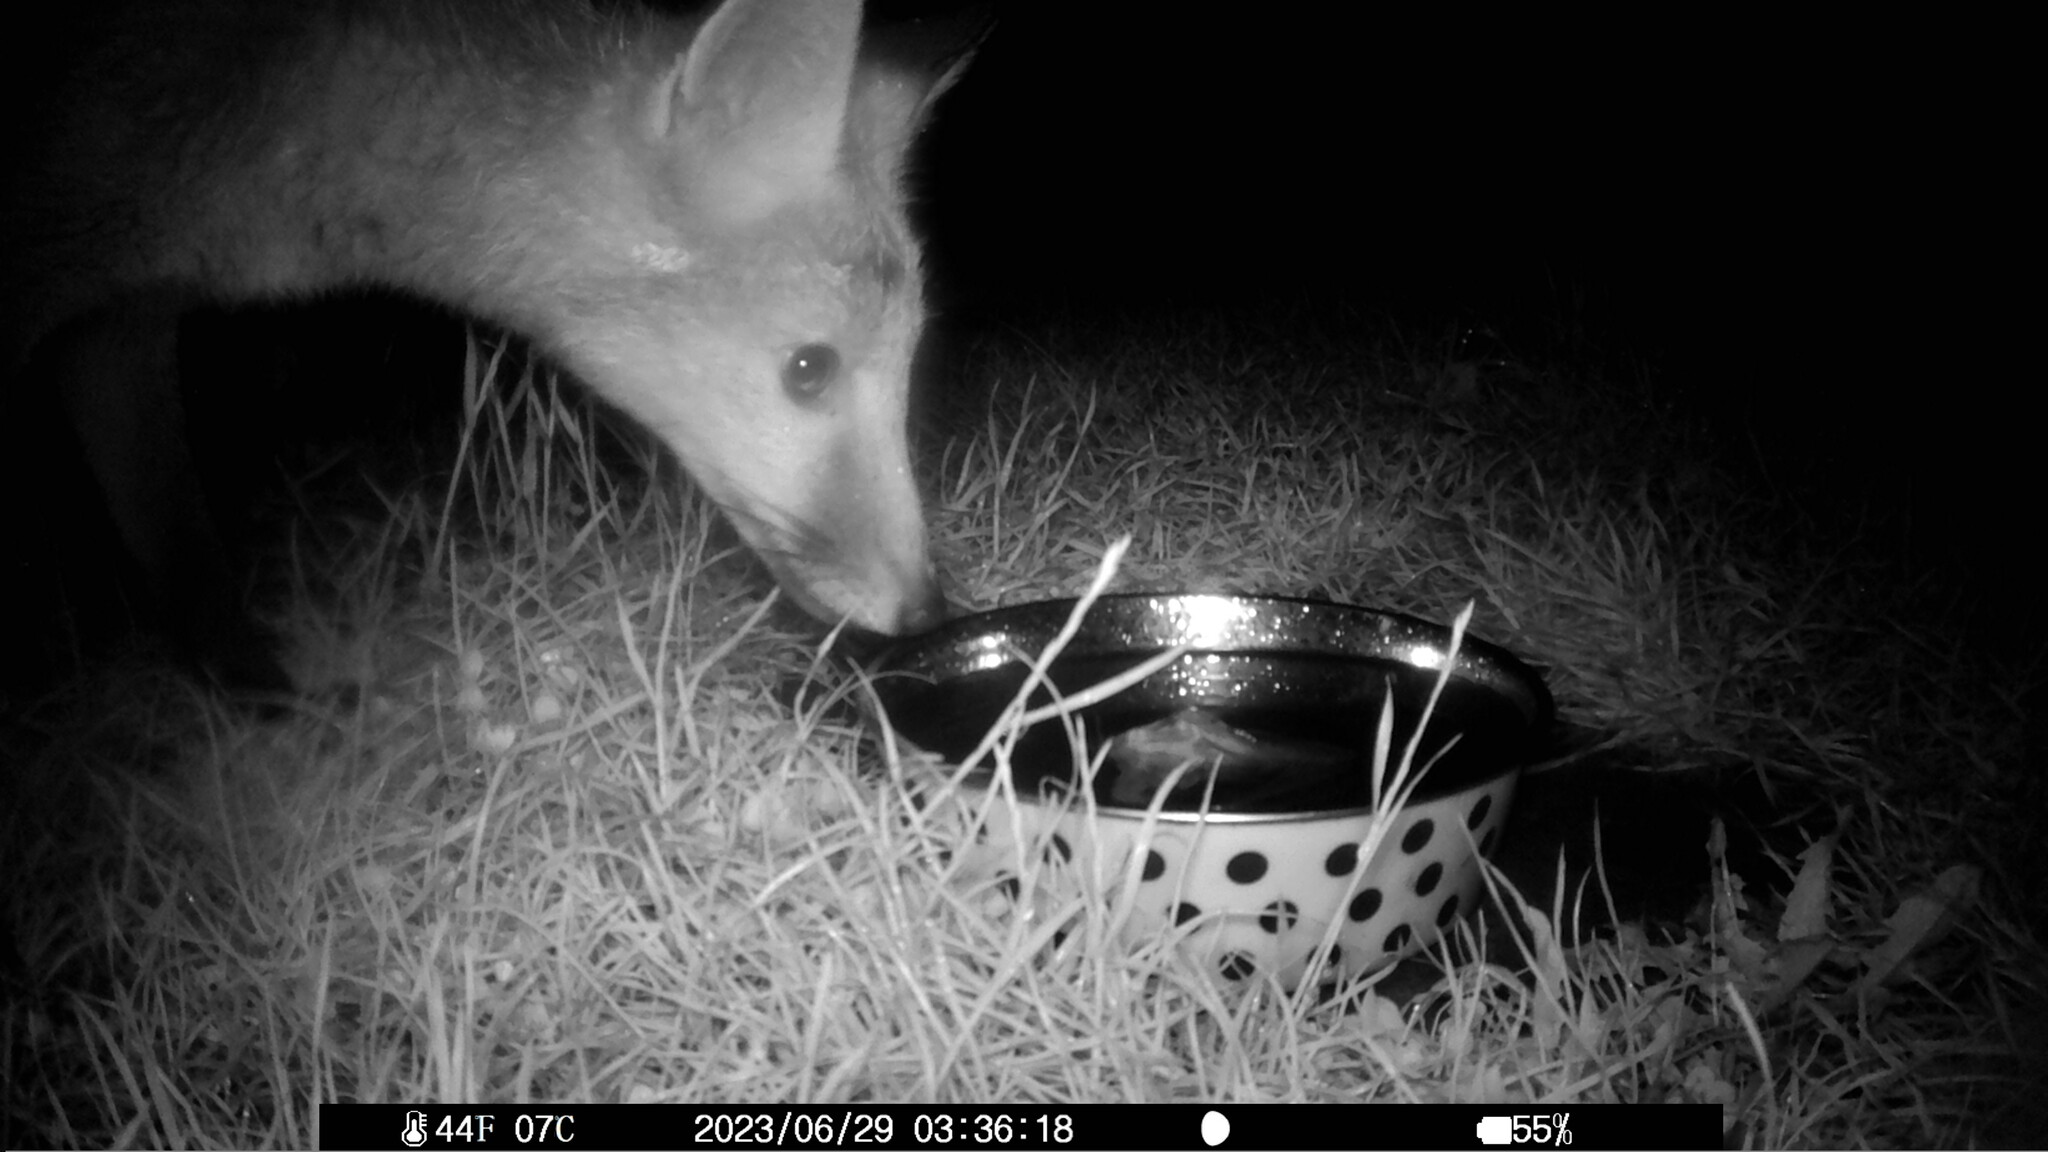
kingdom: Animalia
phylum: Chordata
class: Mammalia
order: Carnivora
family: Canidae
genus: Vulpes
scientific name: Vulpes vulpes
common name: Red fox
